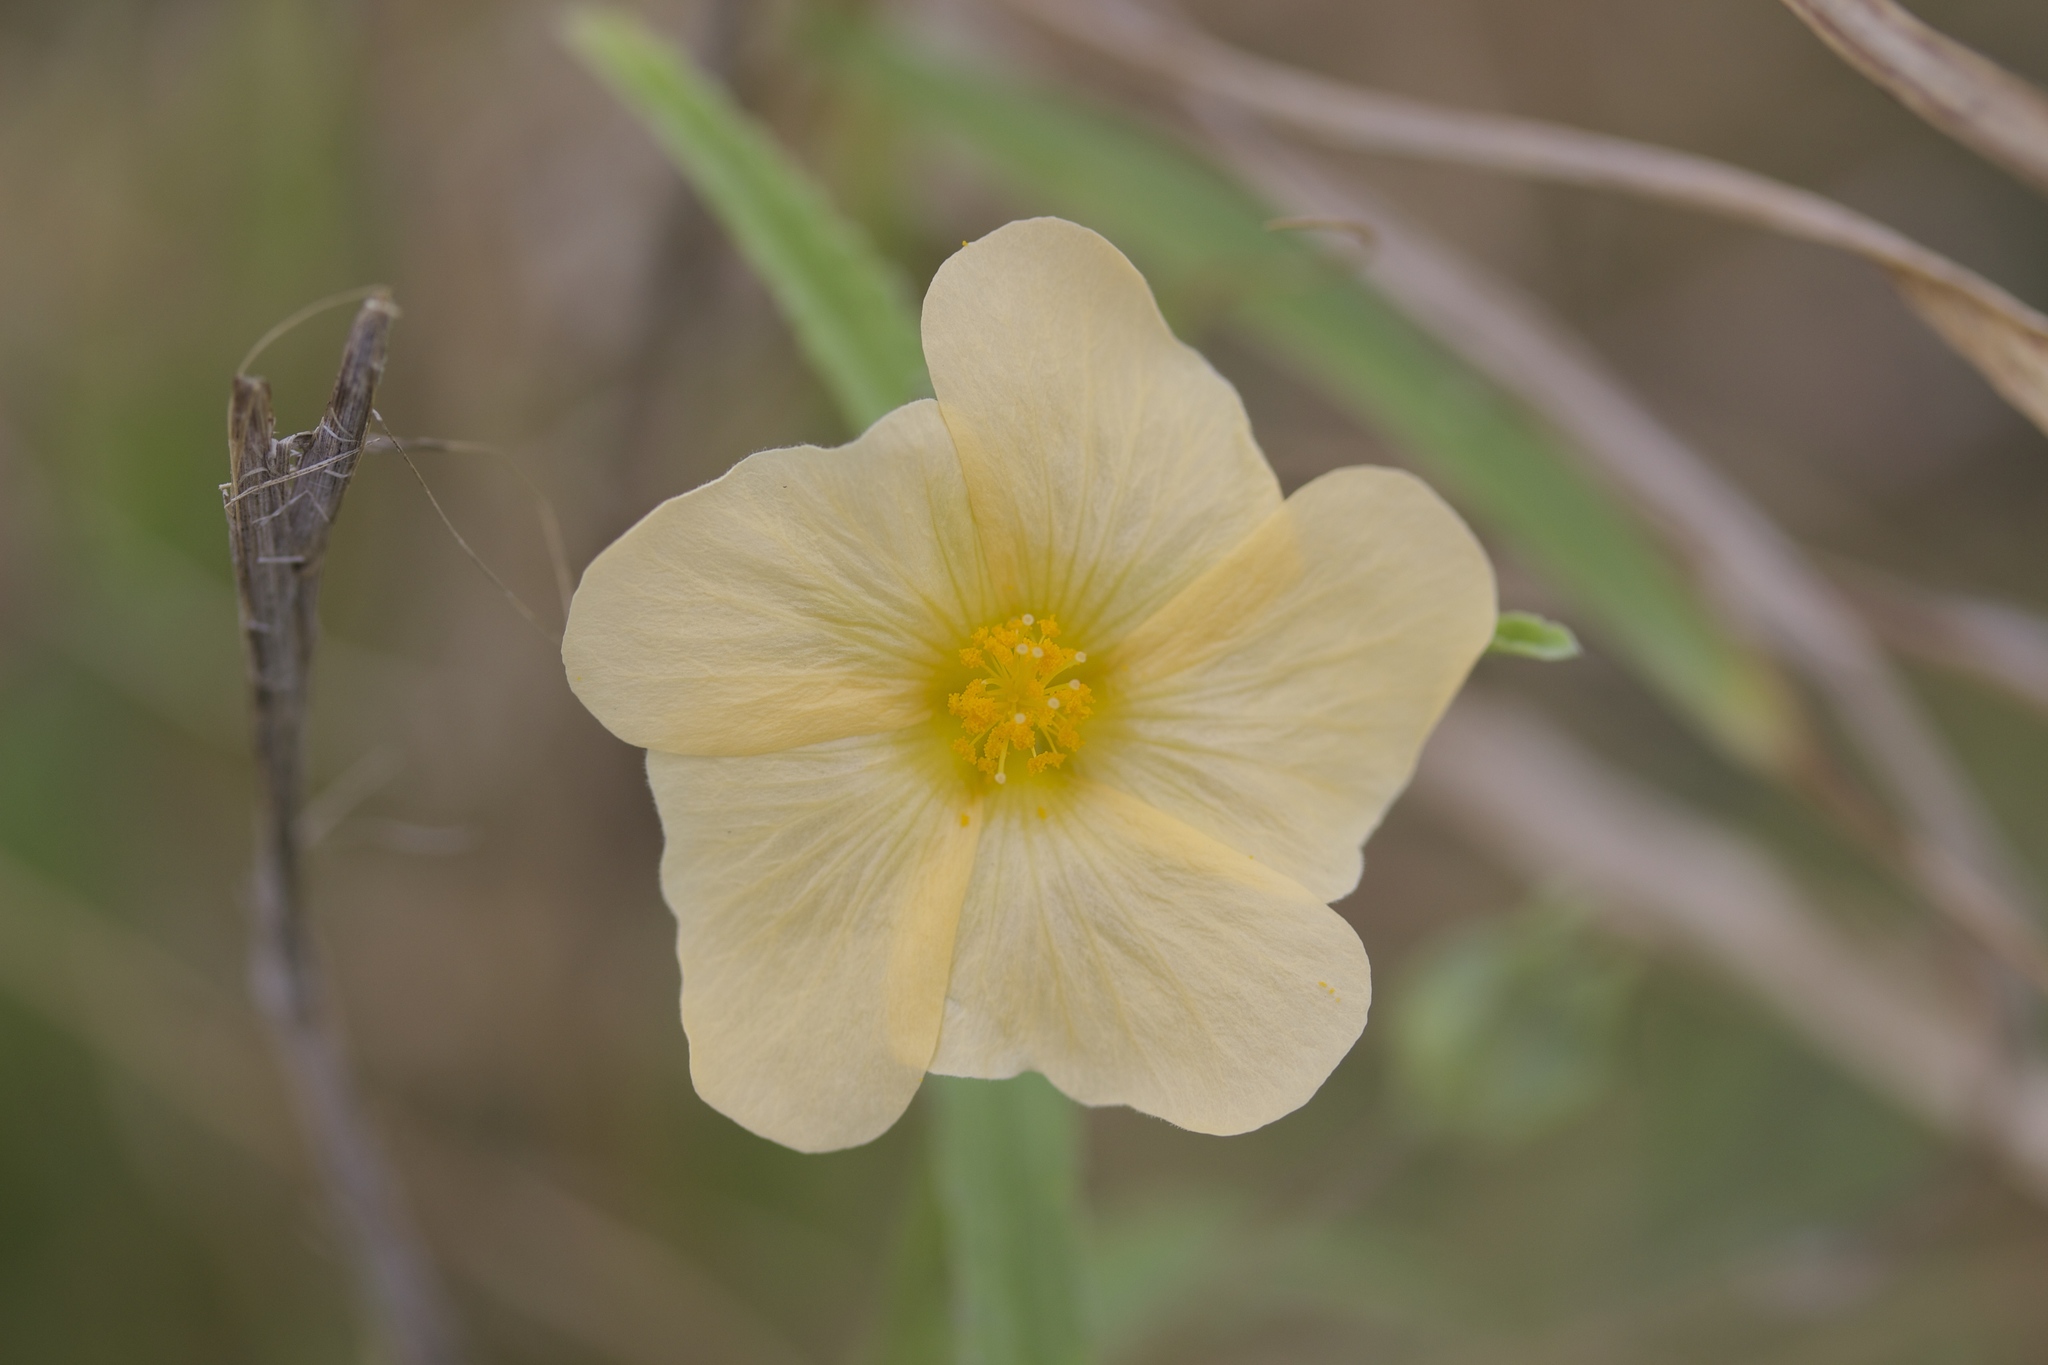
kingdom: Plantae
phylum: Tracheophyta
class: Magnoliopsida
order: Malvales
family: Malvaceae
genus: Sida
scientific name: Sida lindheimeri
